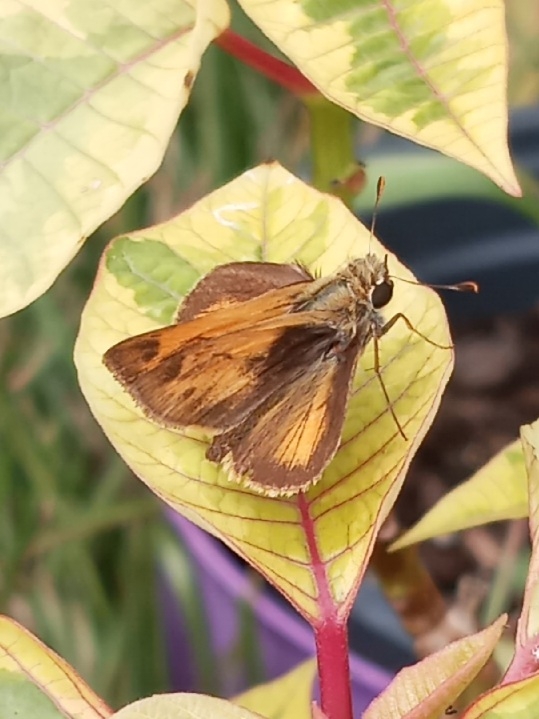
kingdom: Animalia
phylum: Arthropoda
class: Insecta
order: Lepidoptera
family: Hesperiidae
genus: Polites
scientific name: Polites vibex
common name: Whirlabout
